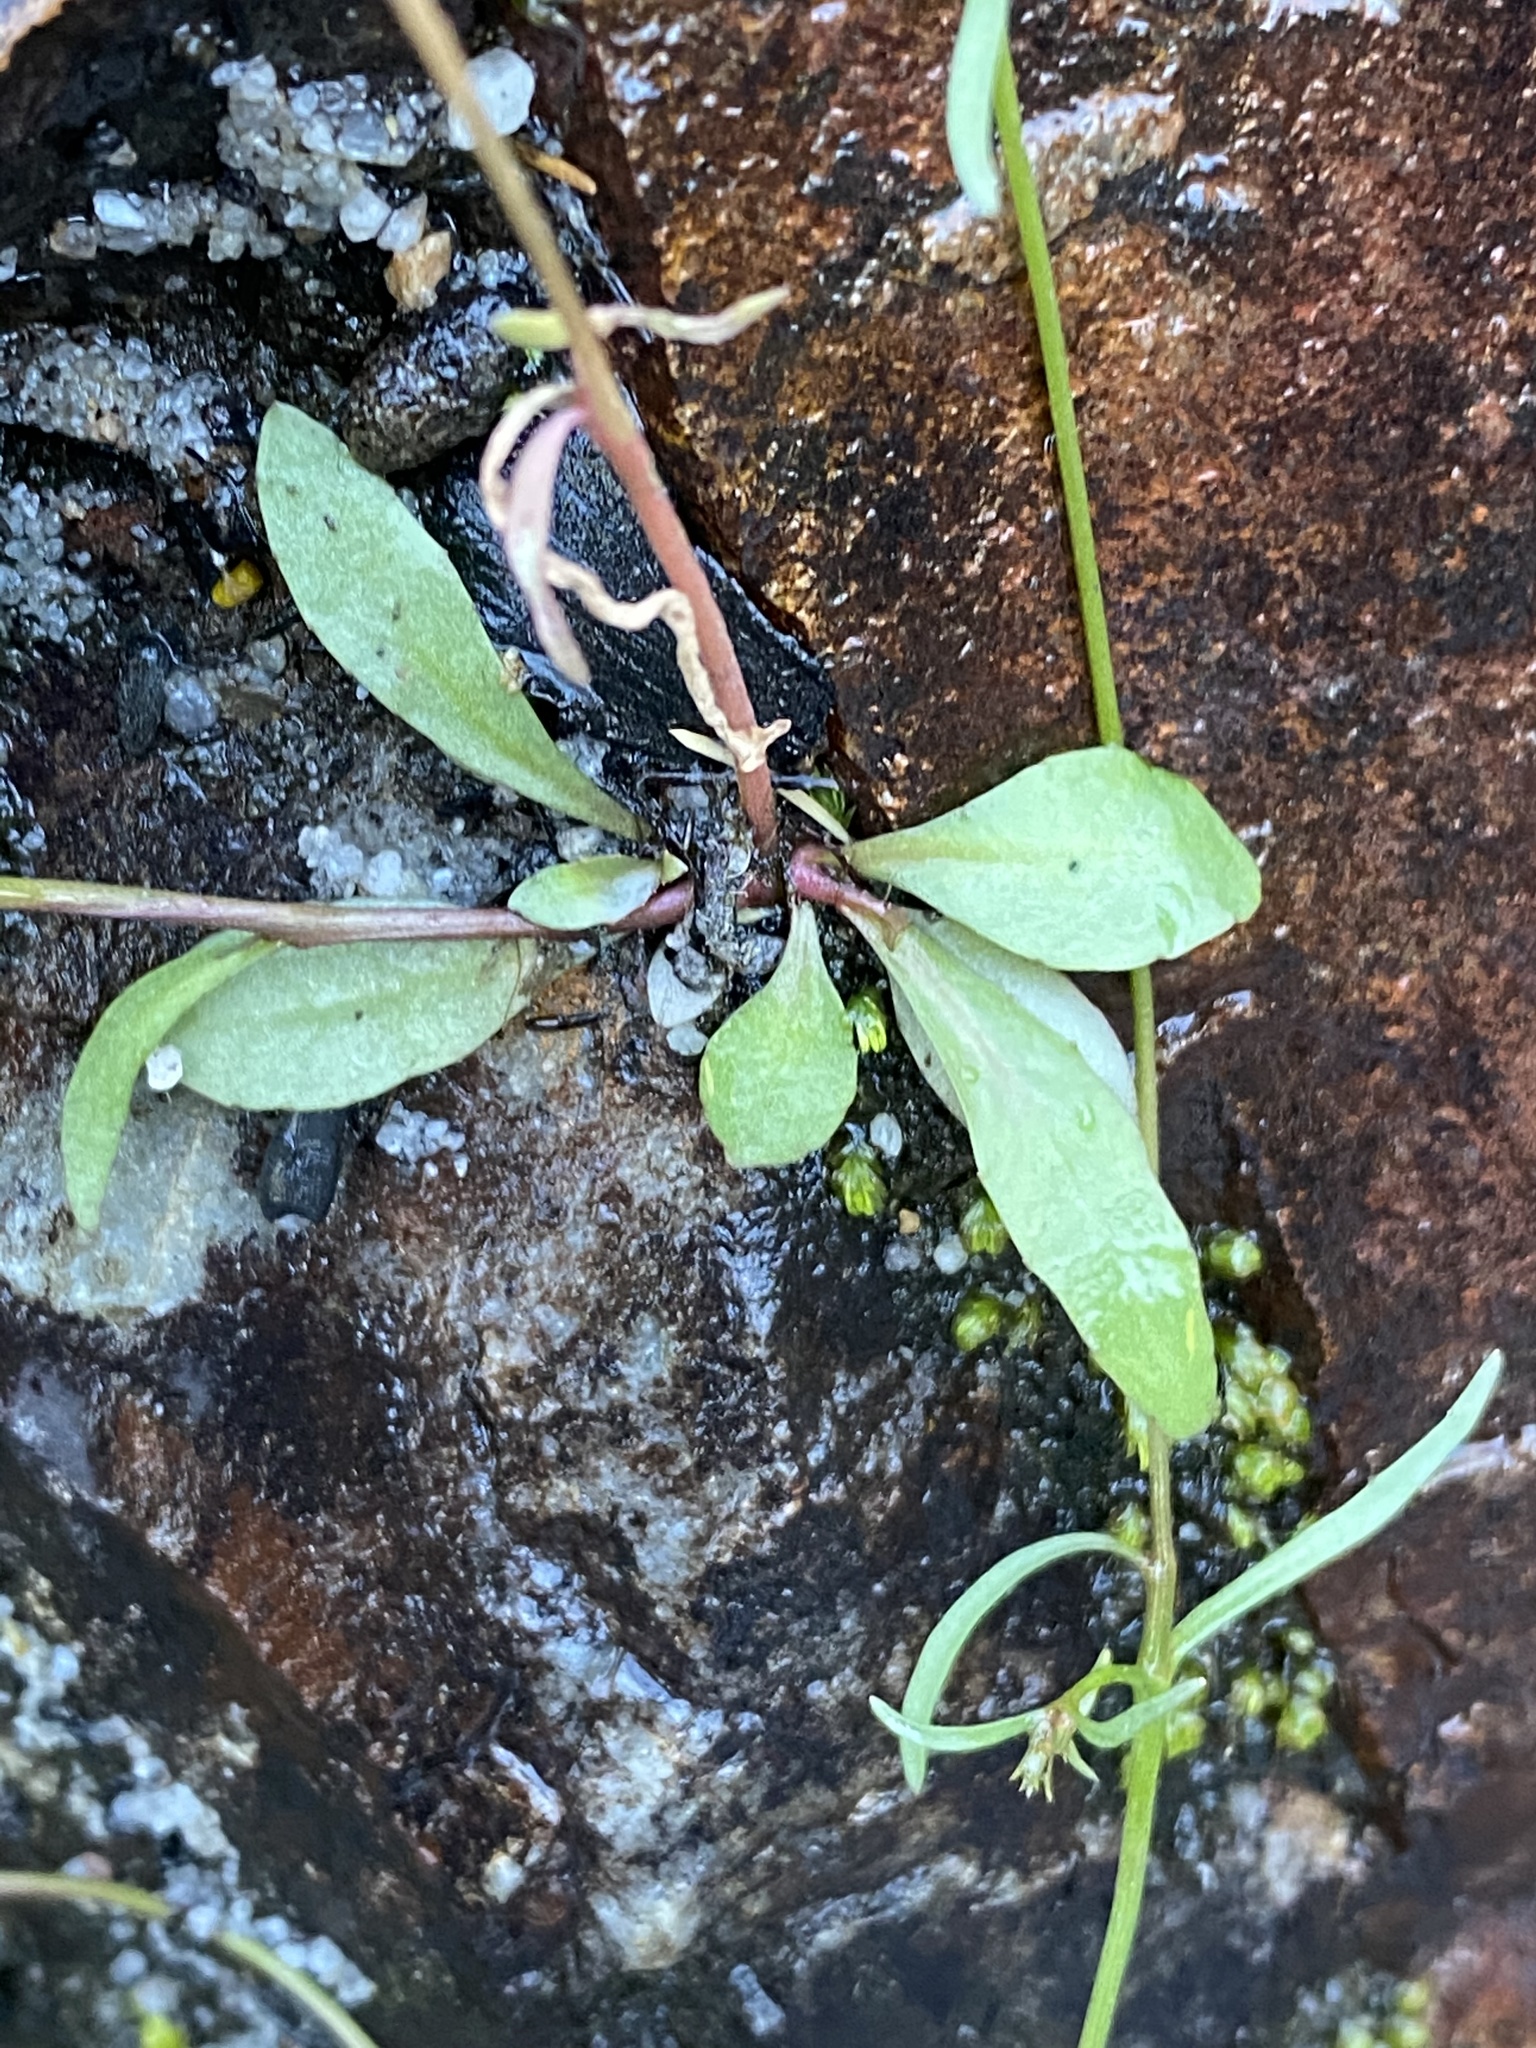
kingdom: Plantae
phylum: Tracheophyta
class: Magnoliopsida
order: Asterales
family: Campanulaceae
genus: Wimmerella
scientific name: Wimmerella arabidea
